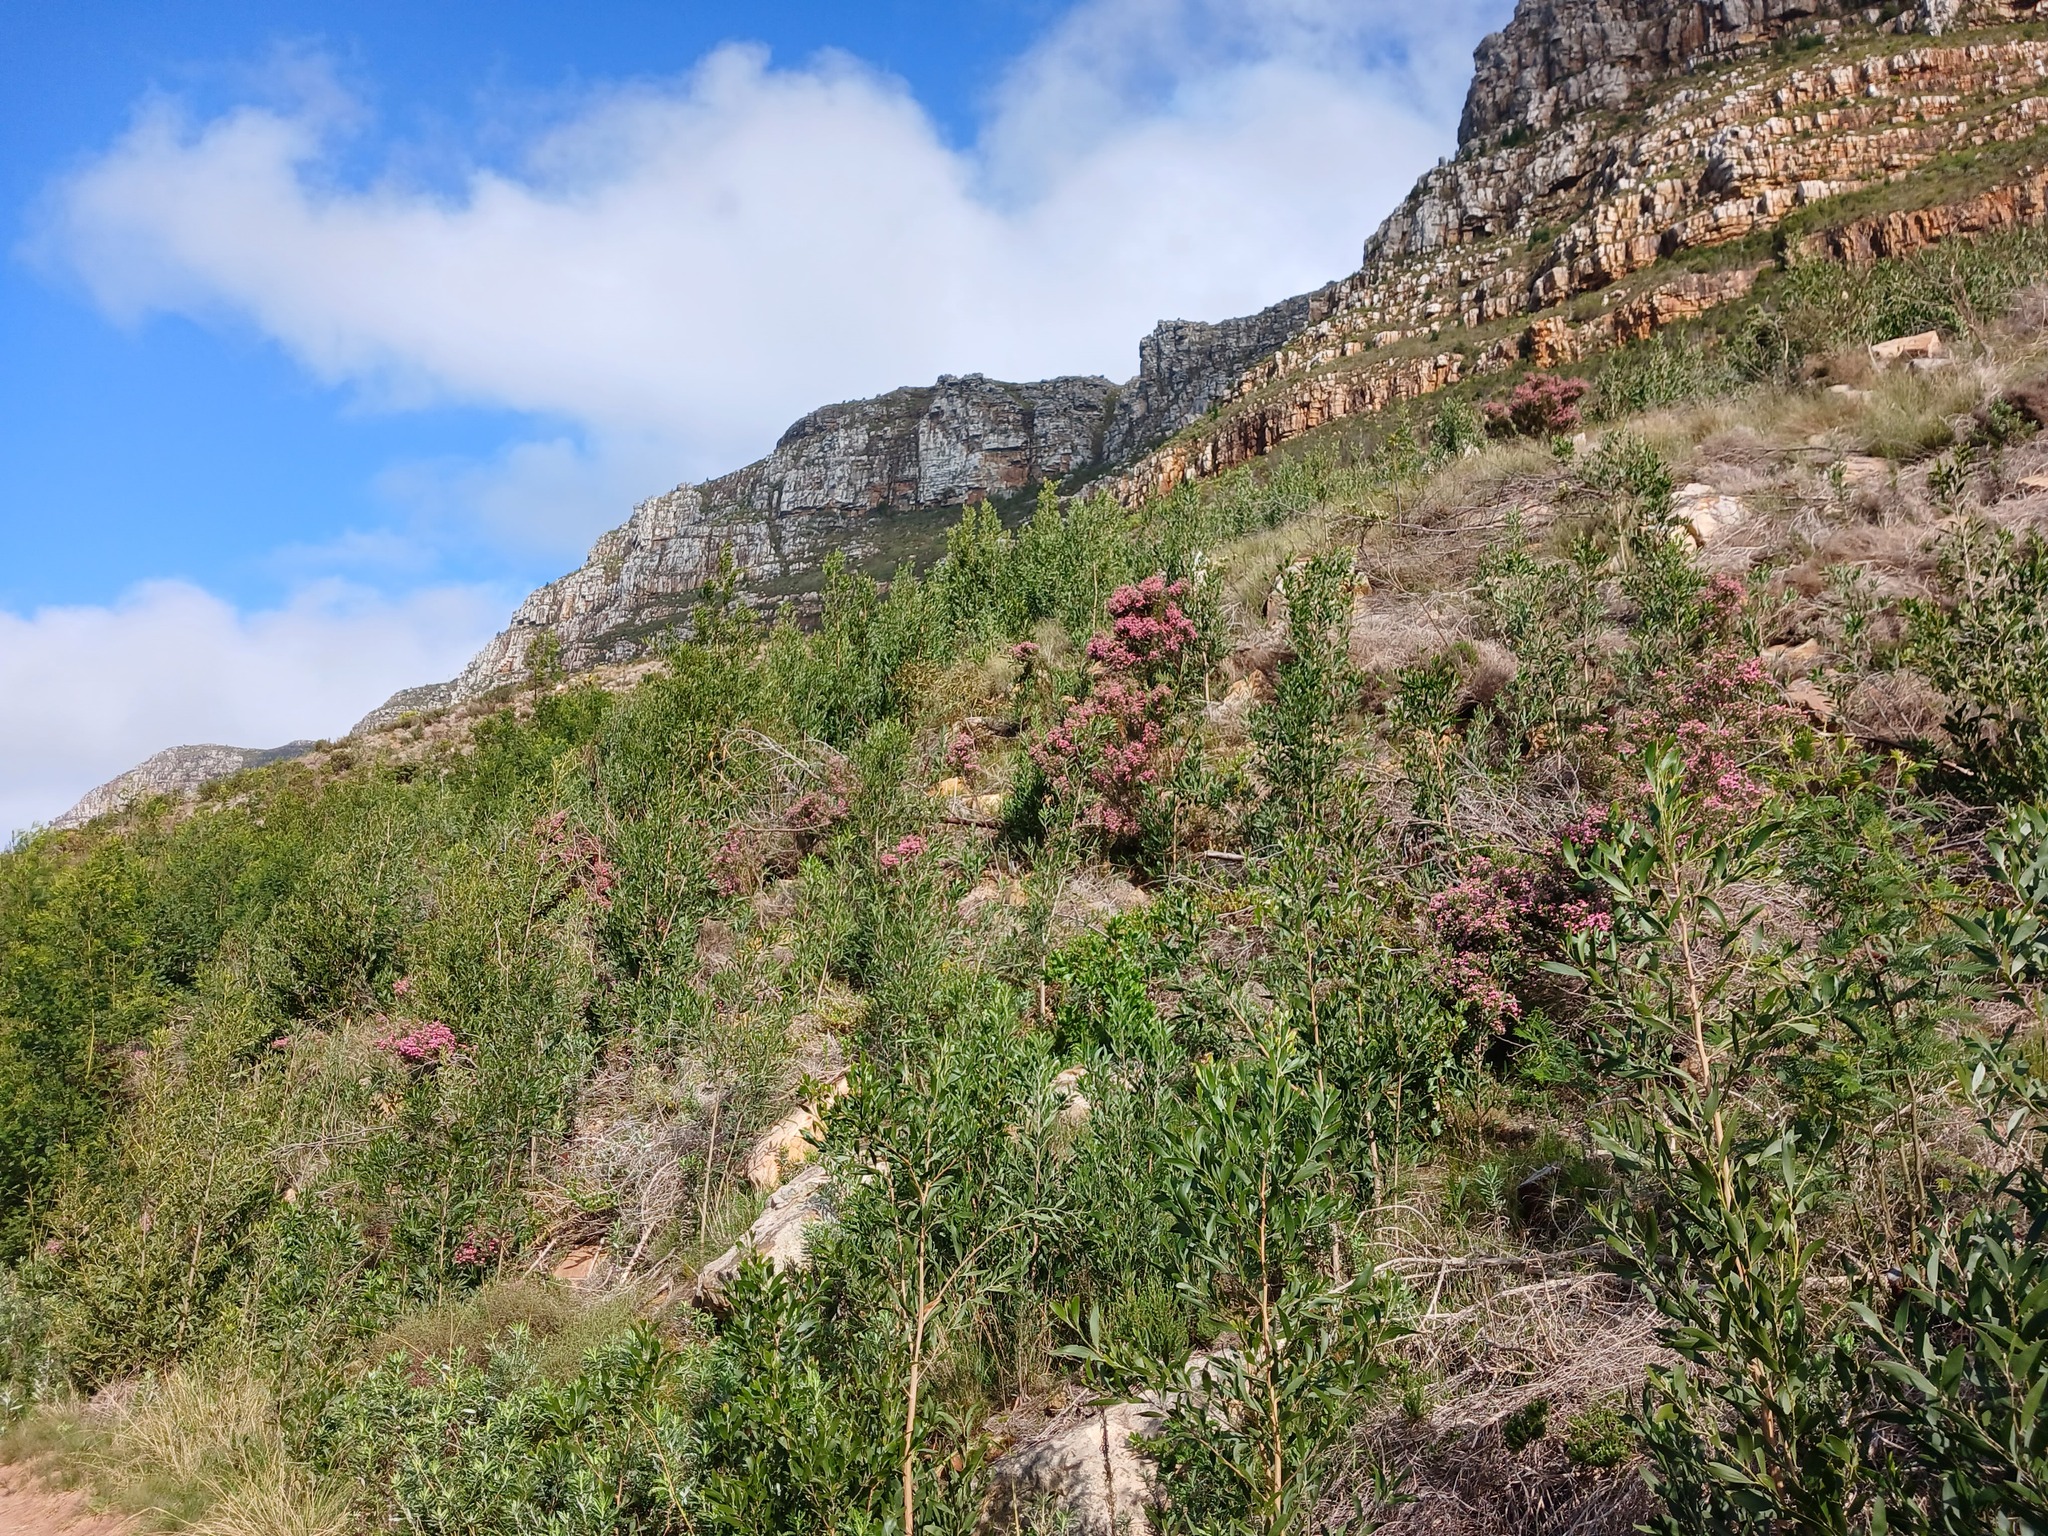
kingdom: Plantae
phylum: Tracheophyta
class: Magnoliopsida
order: Fabales
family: Fabaceae
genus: Acacia
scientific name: Acacia melanoxylon
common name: Blackwood
